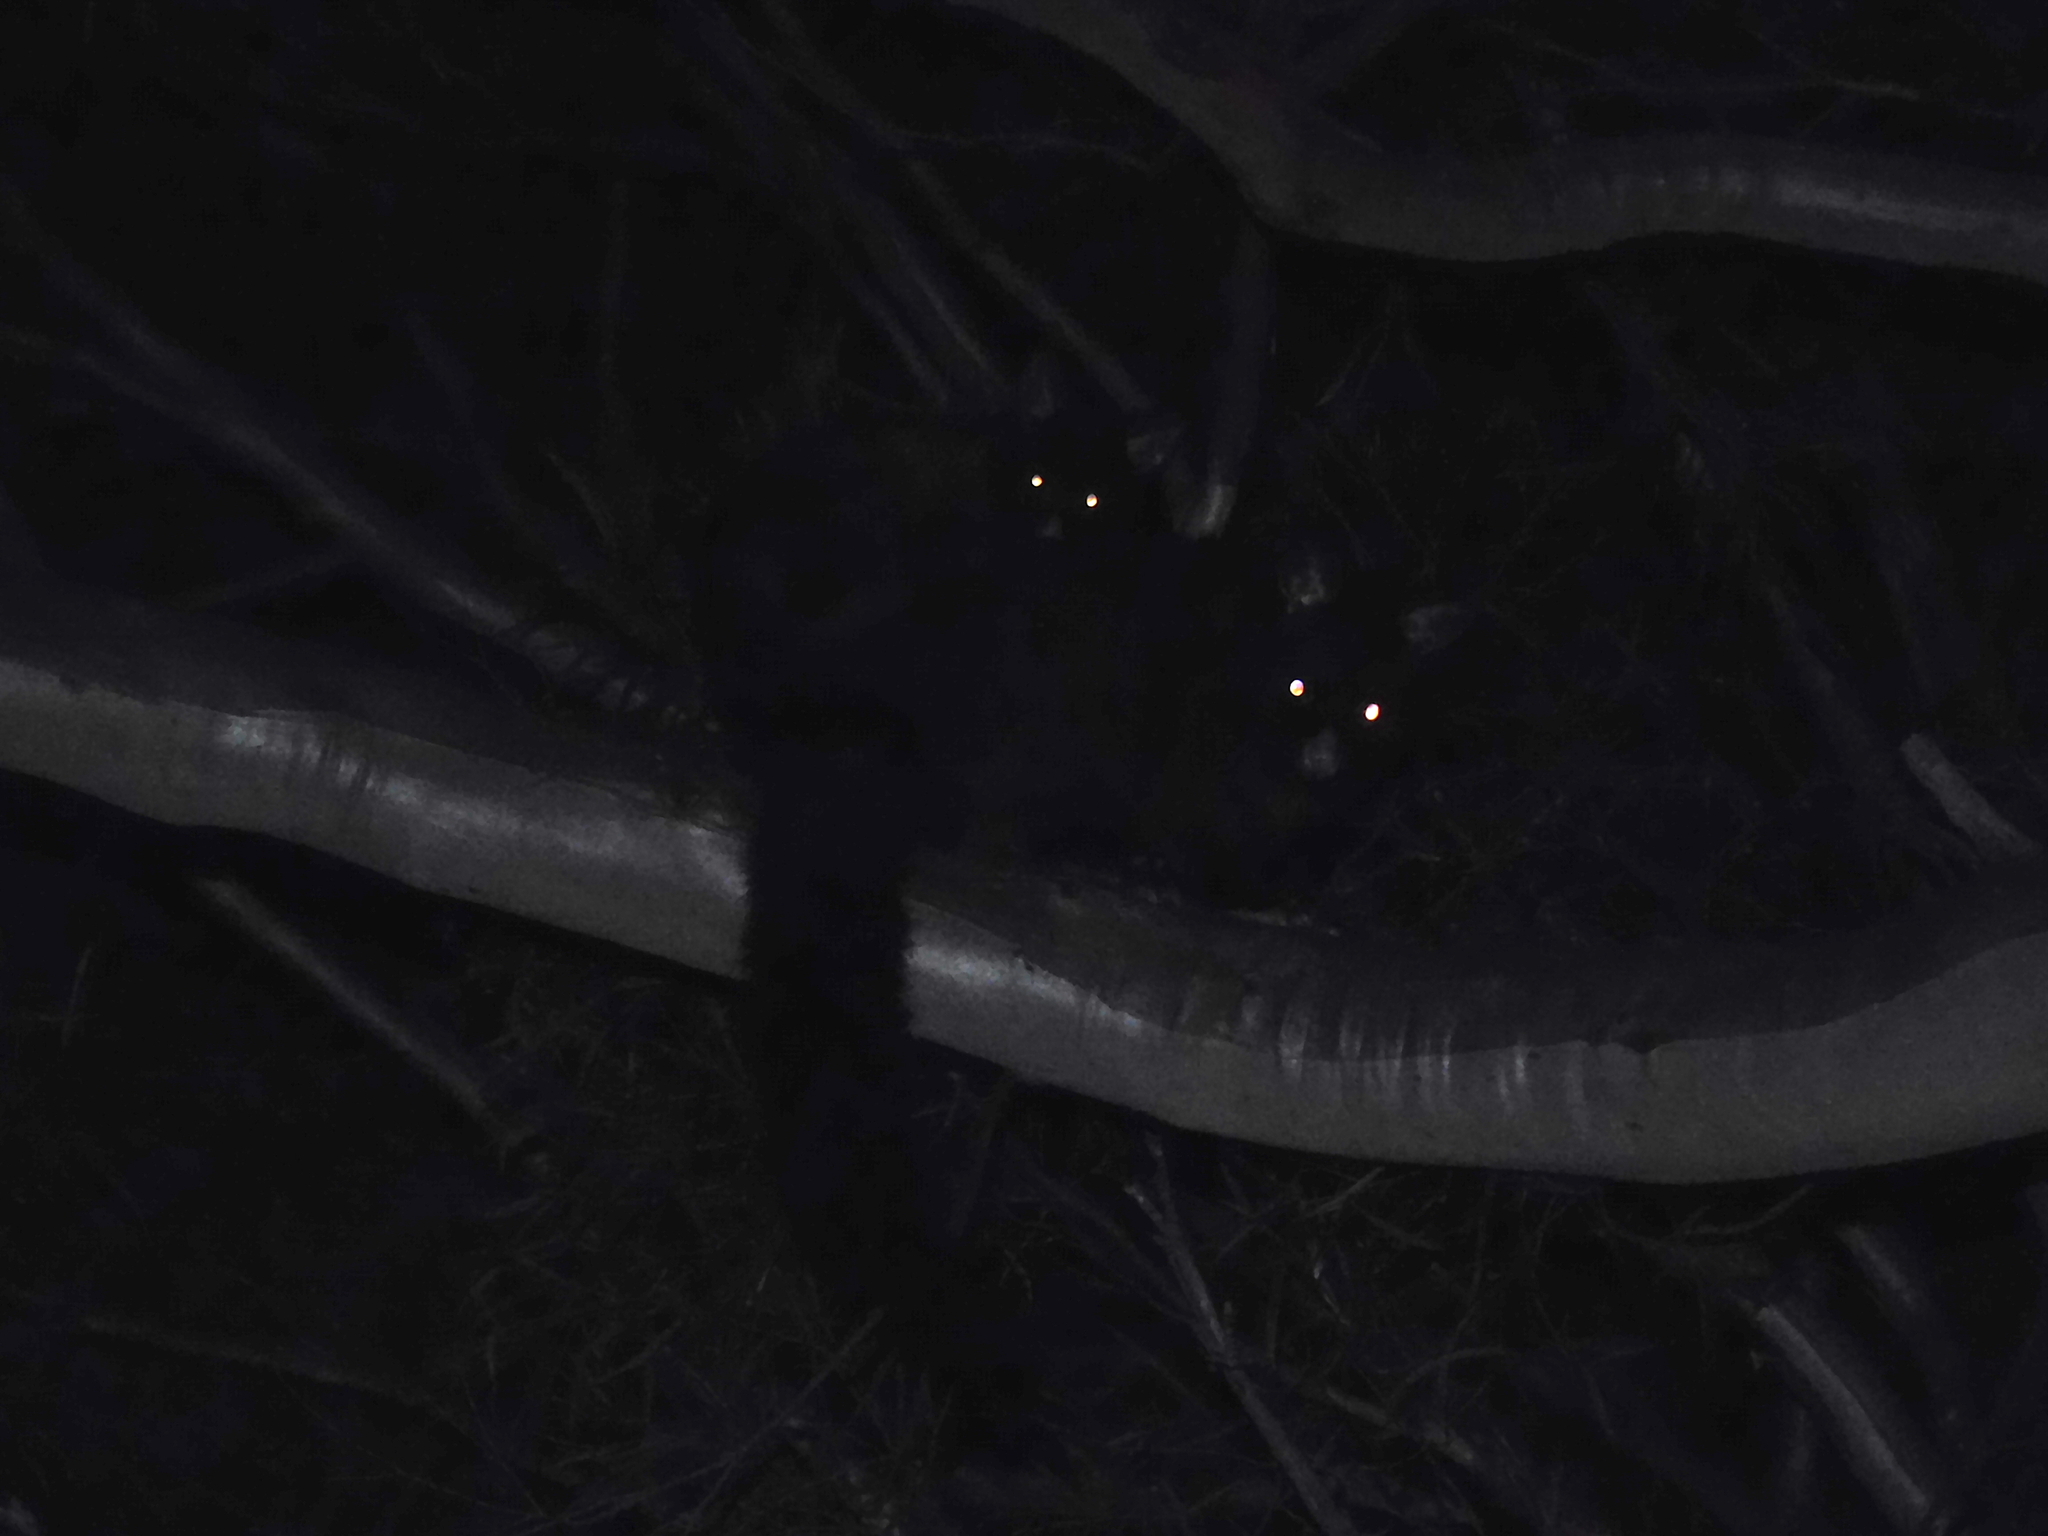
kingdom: Animalia
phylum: Chordata
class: Mammalia
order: Diprotodontia
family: Phalangeridae
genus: Trichosurus
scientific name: Trichosurus vulpecula
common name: Common brushtail
